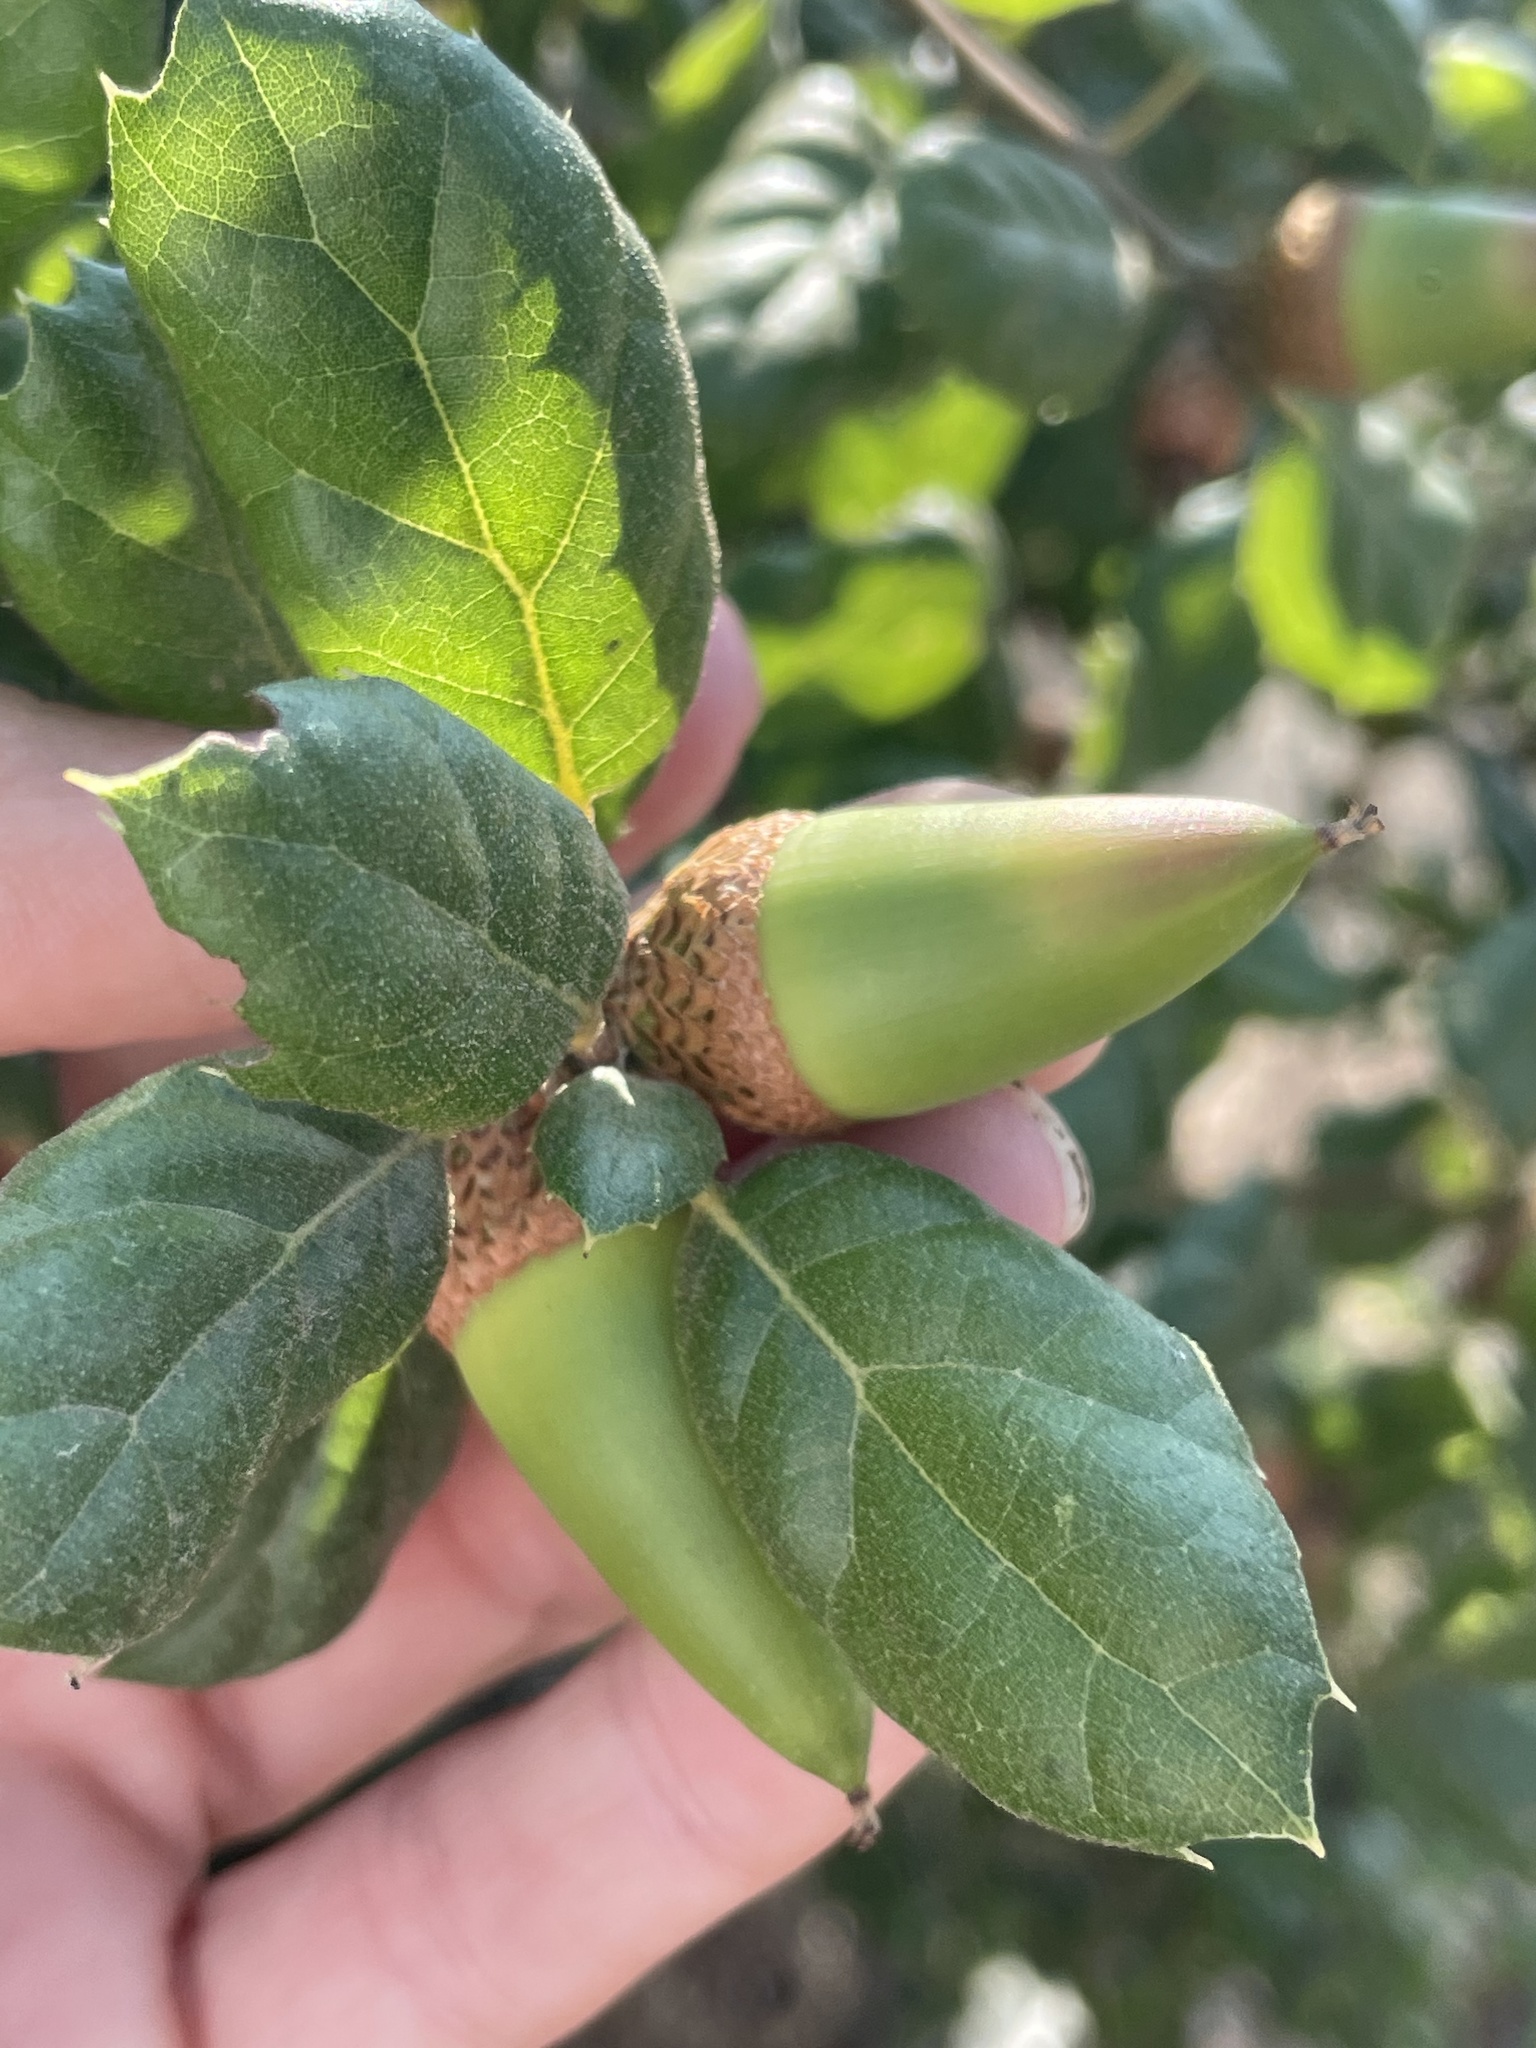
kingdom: Plantae
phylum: Tracheophyta
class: Magnoliopsida
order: Fagales
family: Fagaceae
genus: Quercus
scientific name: Quercus agrifolia
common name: California live oak
